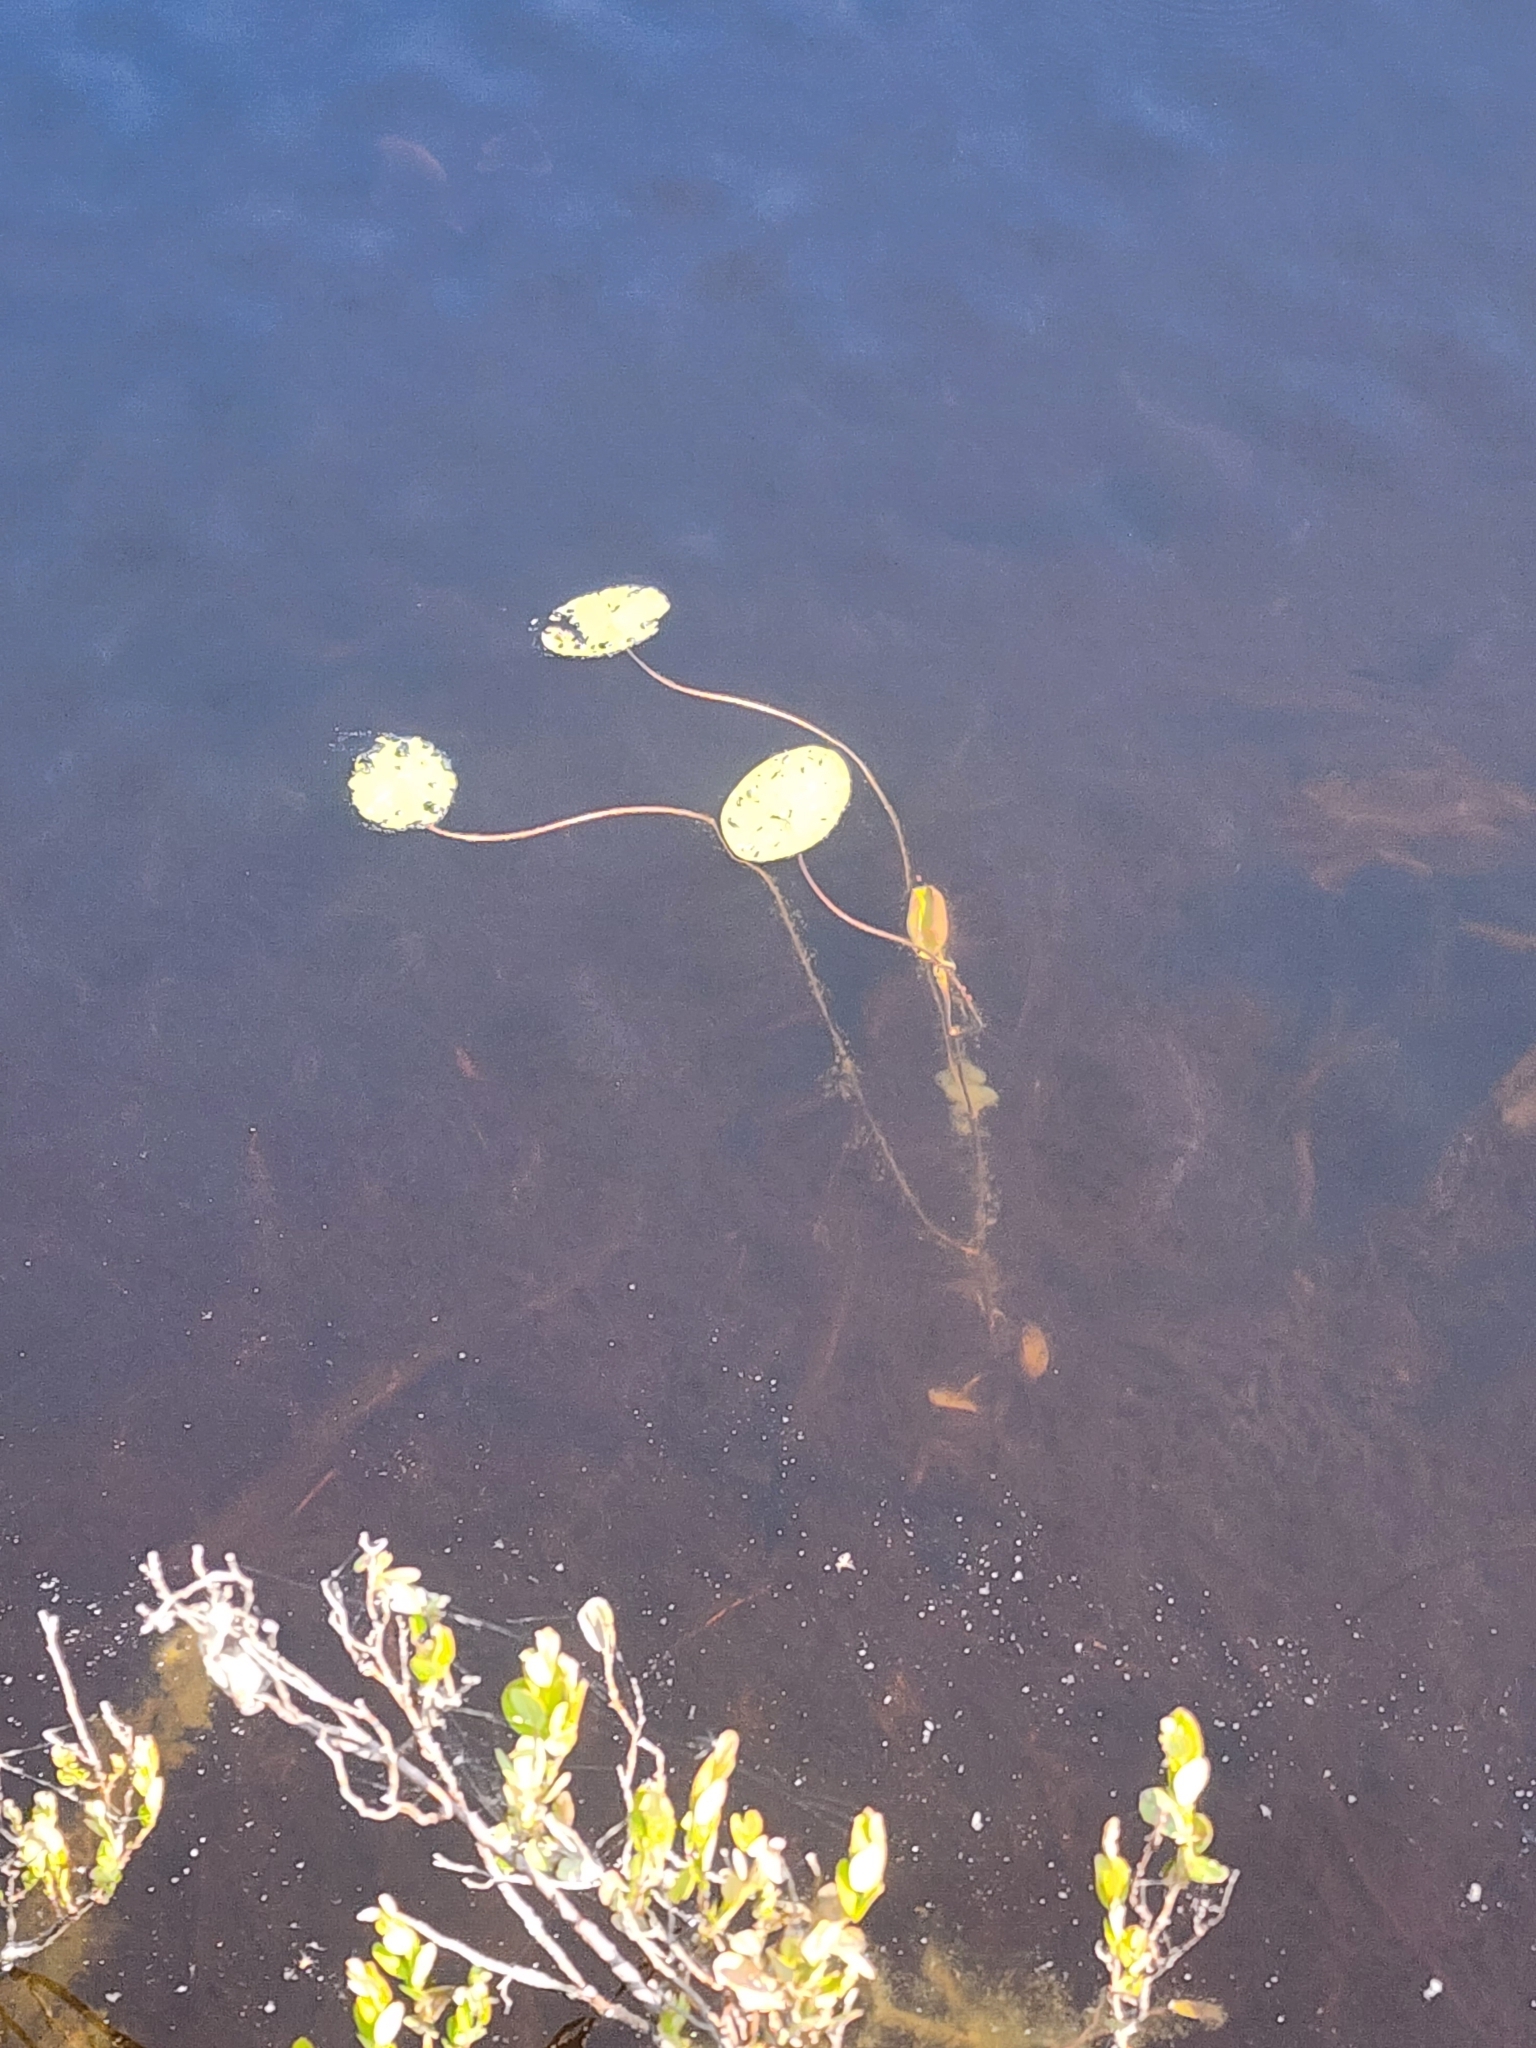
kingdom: Plantae
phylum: Tracheophyta
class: Magnoliopsida
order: Nymphaeales
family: Cabombaceae
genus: Brasenia
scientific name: Brasenia schreberi
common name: Water-shield
